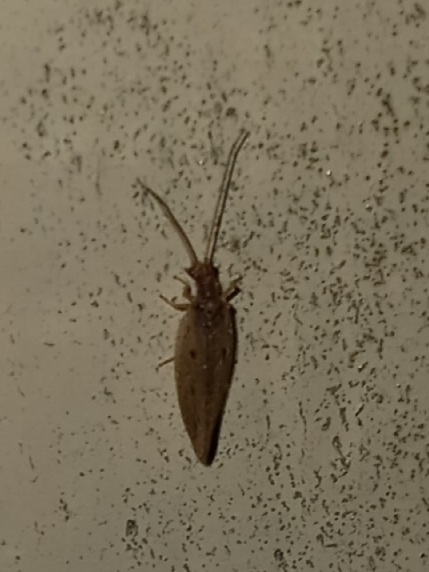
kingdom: Animalia
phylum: Arthropoda
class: Insecta
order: Neuroptera
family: Hemerobiidae
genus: Micromus
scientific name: Micromus subanticus
